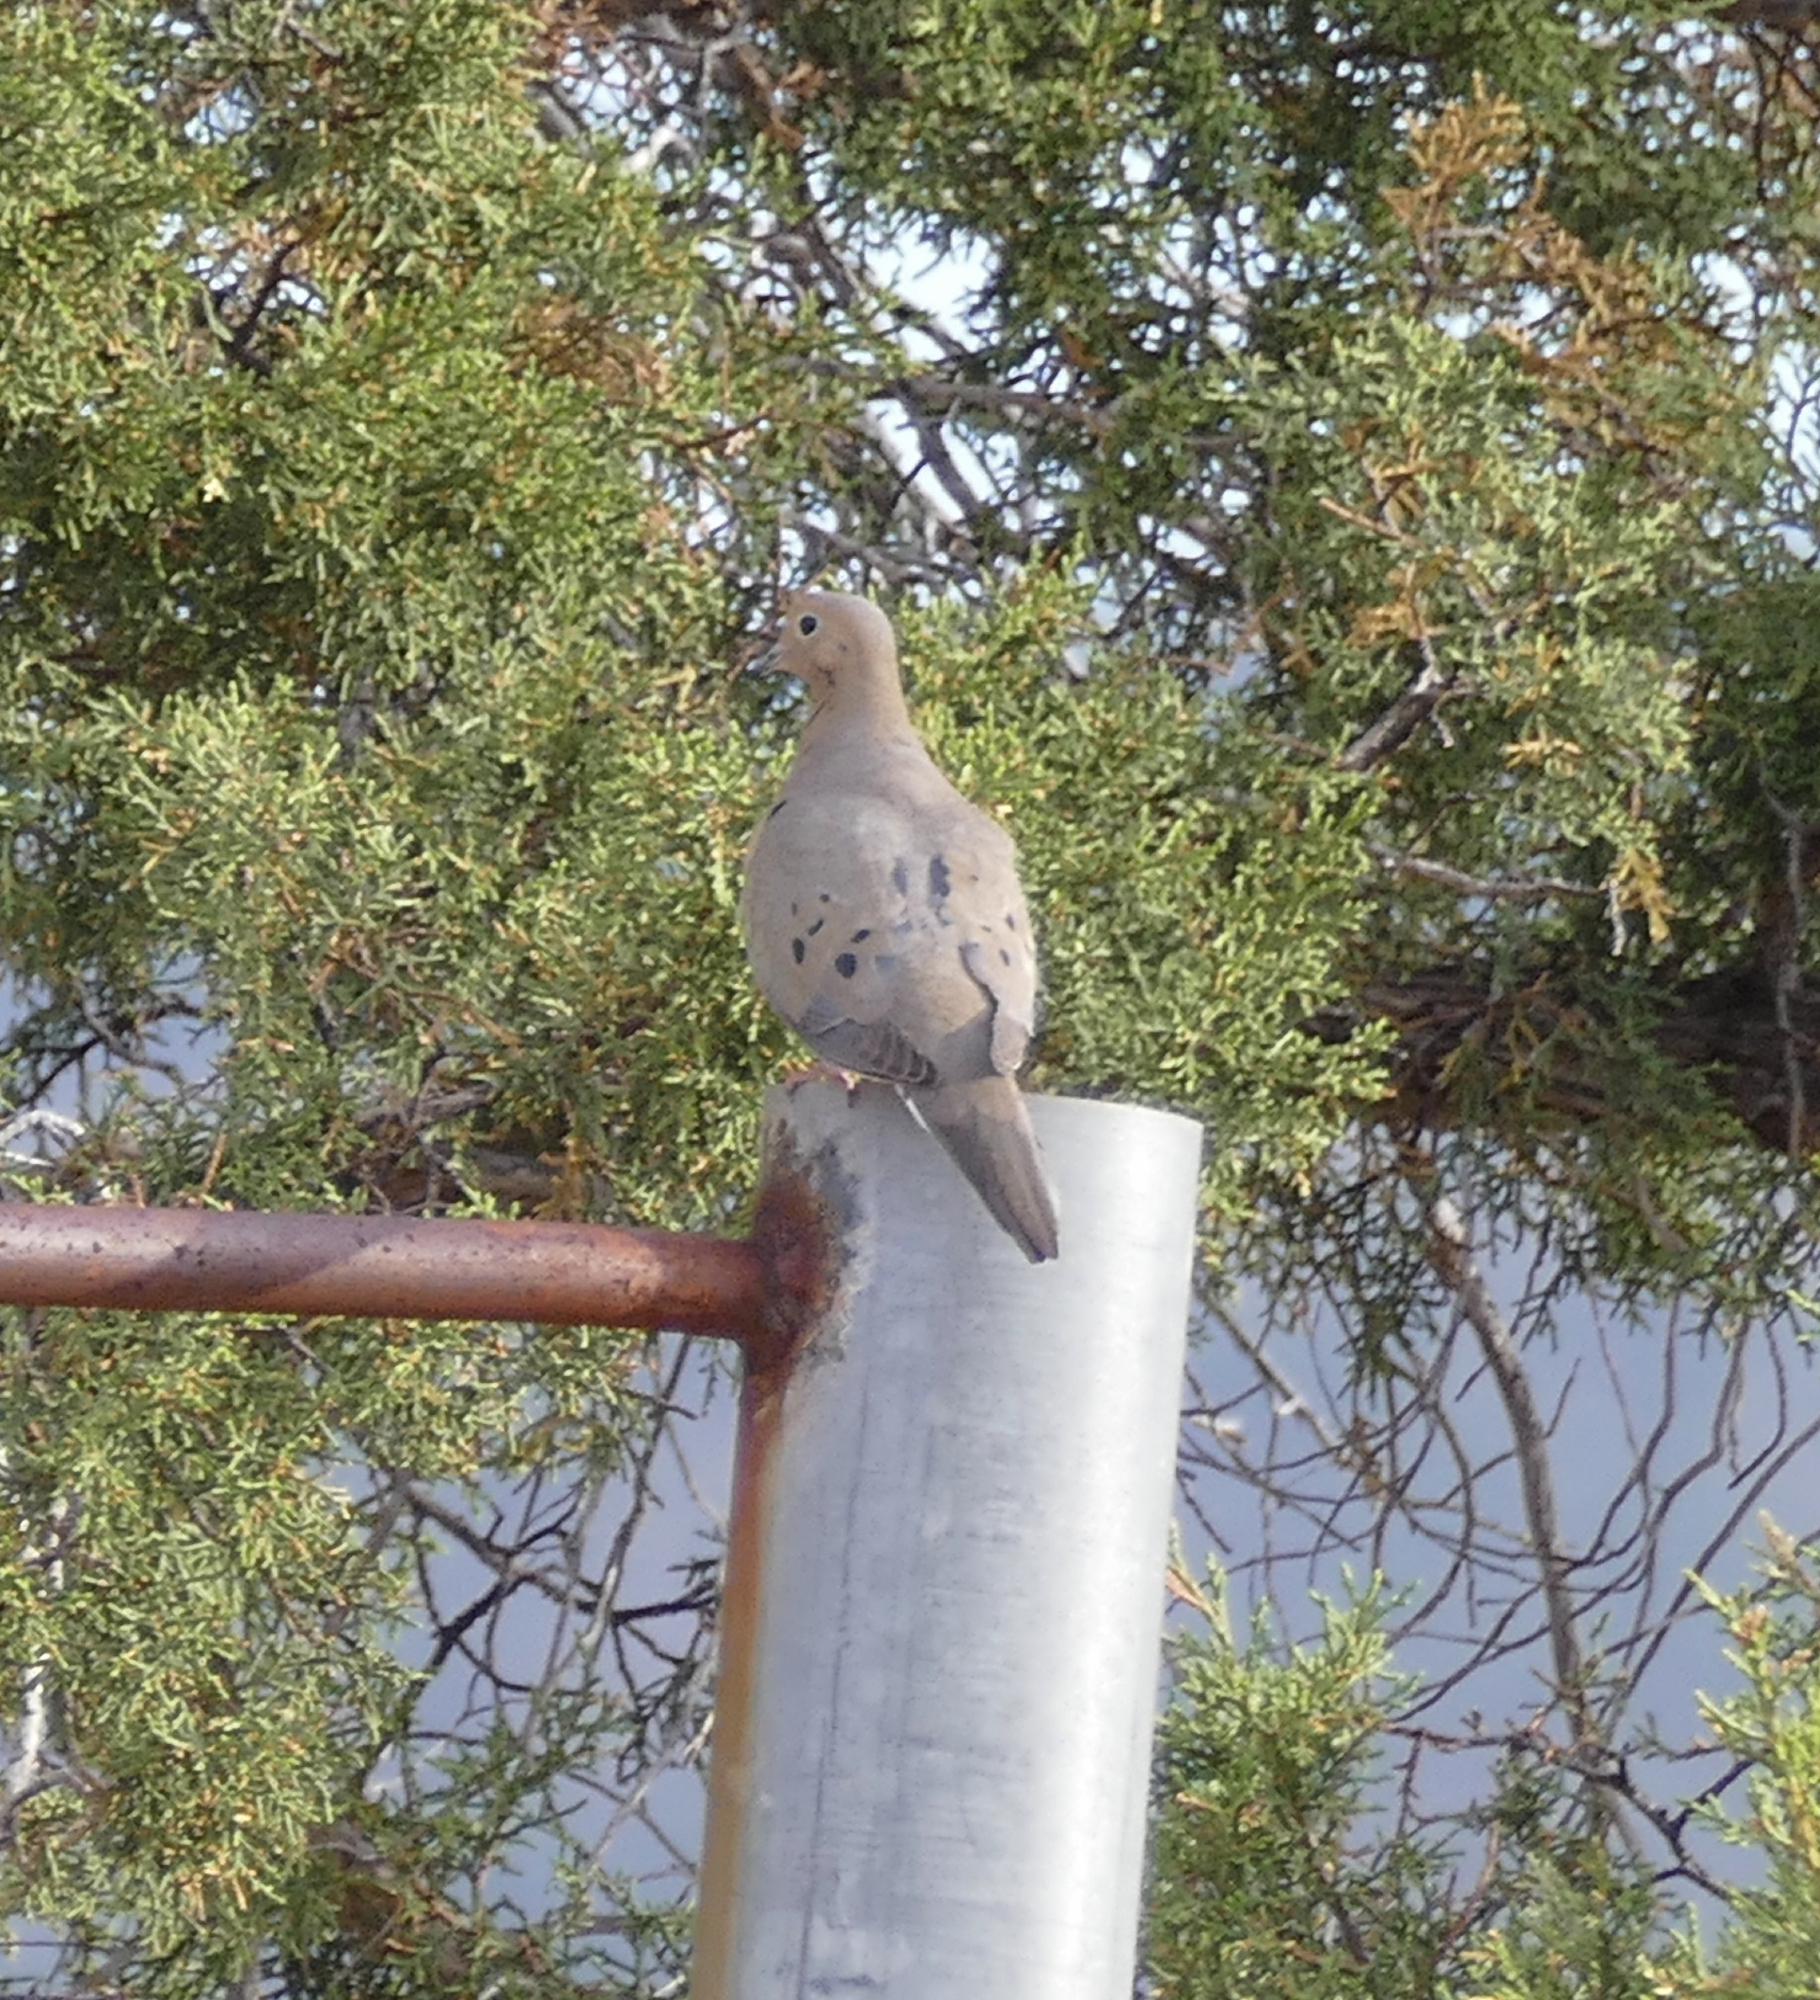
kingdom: Animalia
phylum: Chordata
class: Aves
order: Columbiformes
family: Columbidae
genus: Zenaida
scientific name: Zenaida macroura
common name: Mourning dove
